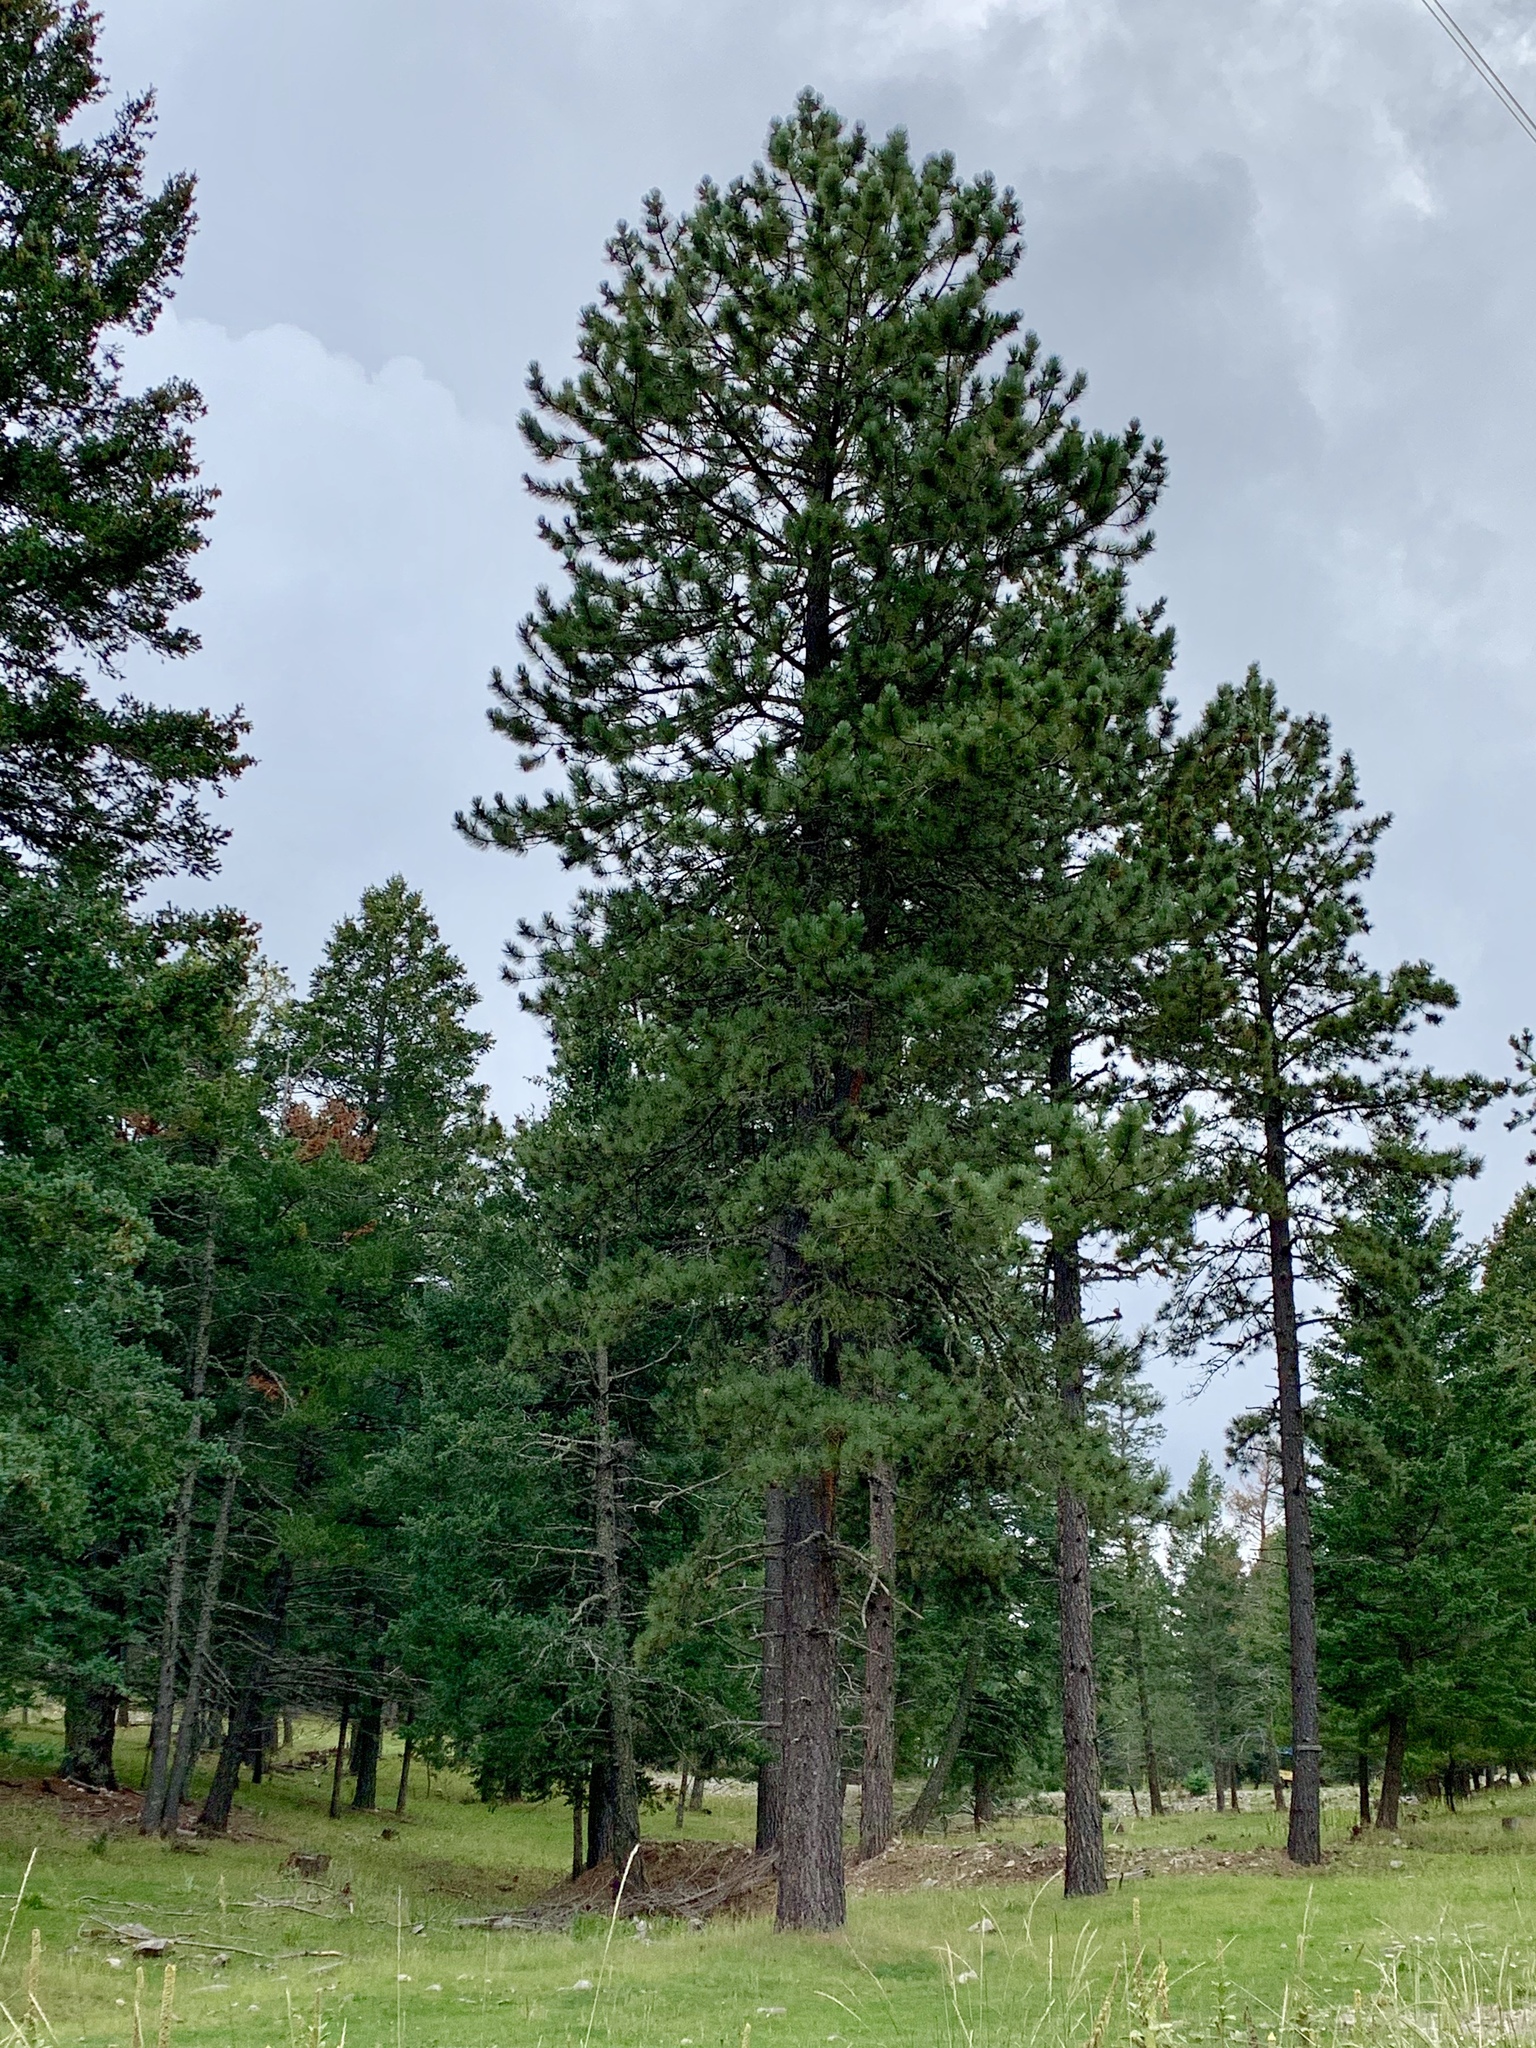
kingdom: Plantae
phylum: Tracheophyta
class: Pinopsida
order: Pinales
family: Pinaceae
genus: Pinus
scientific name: Pinus ponderosa
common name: Western yellow-pine
